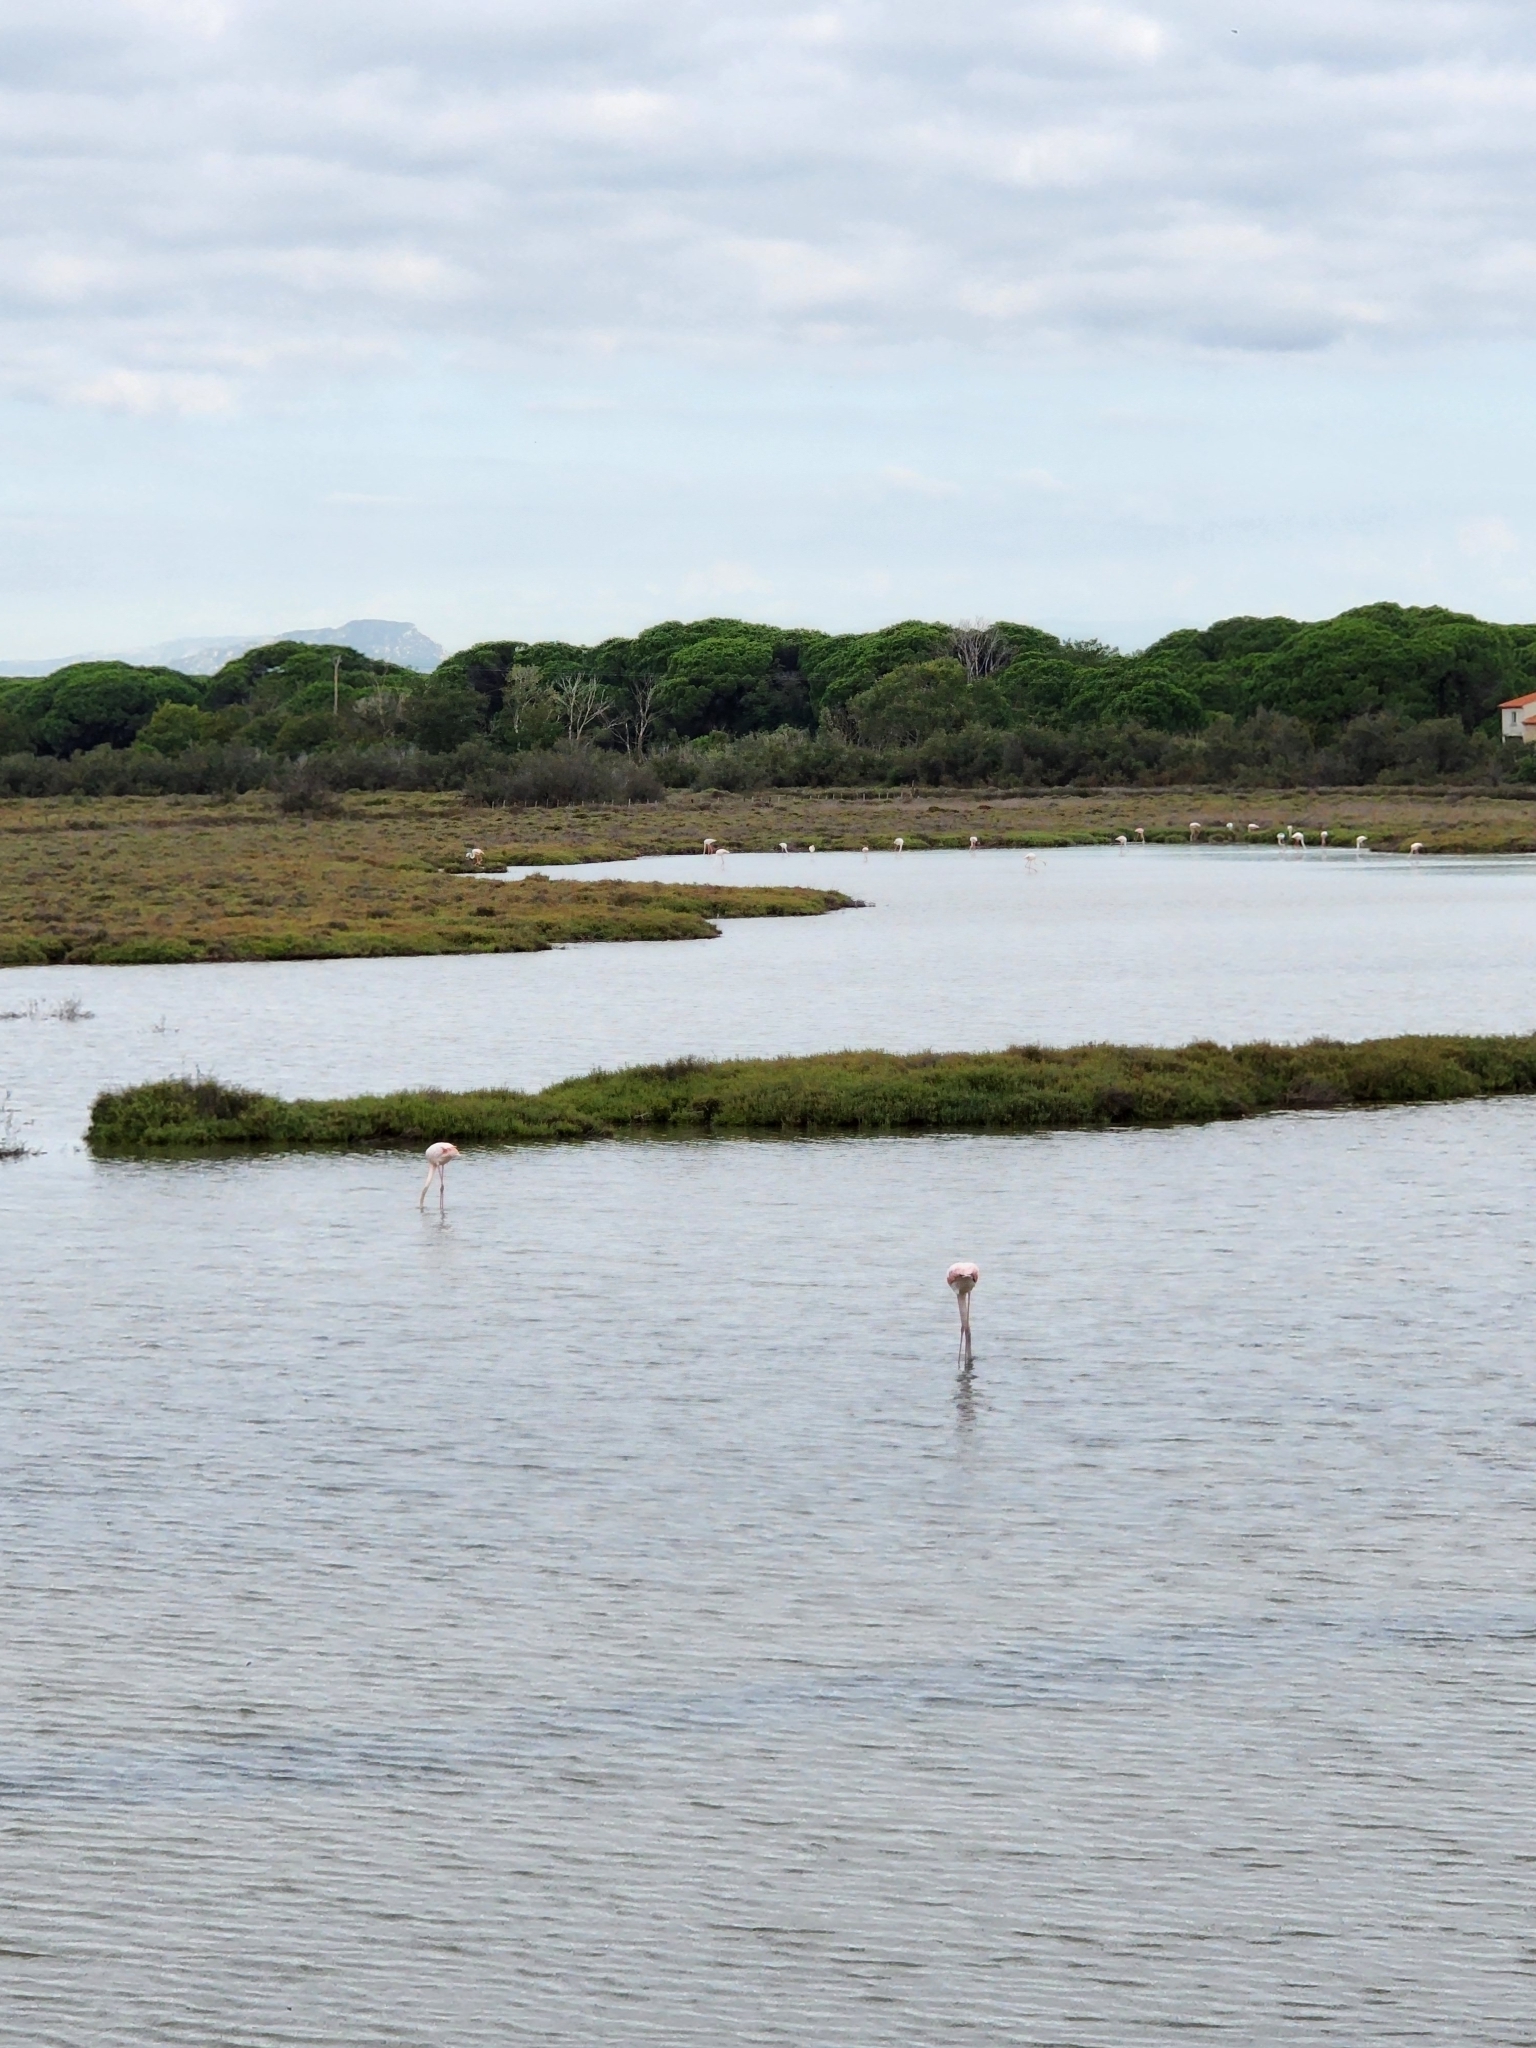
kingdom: Animalia
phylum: Chordata
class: Aves
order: Phoenicopteriformes
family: Phoenicopteridae
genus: Phoenicopterus
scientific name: Phoenicopterus roseus
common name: Greater flamingo
